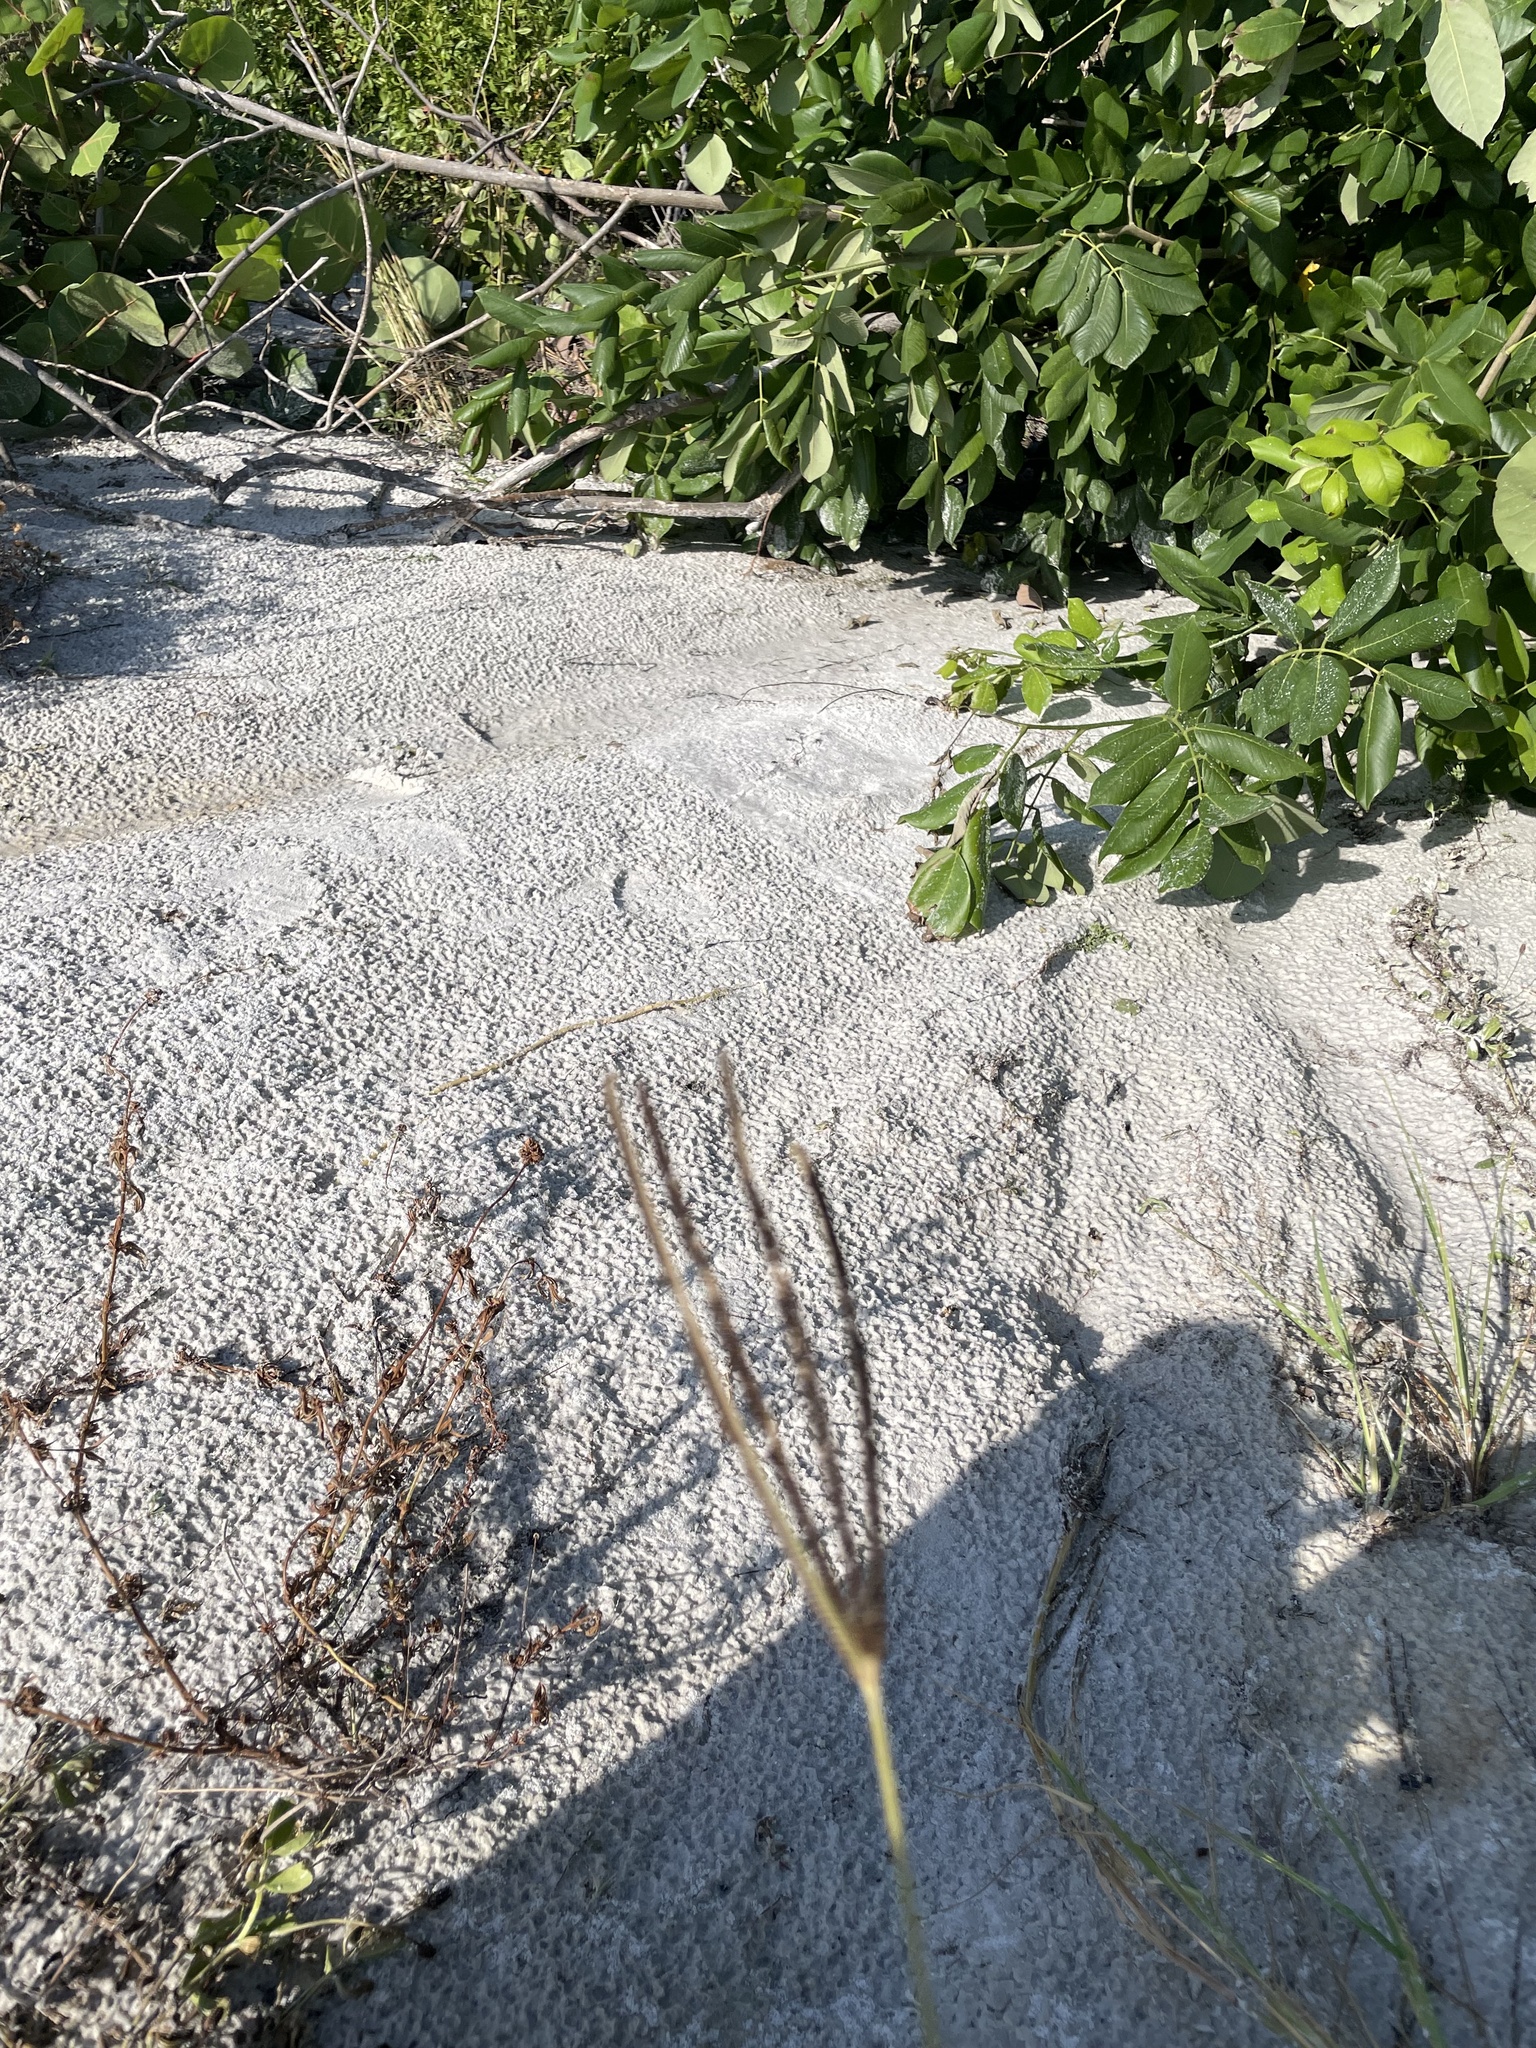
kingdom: Plantae
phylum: Tracheophyta
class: Liliopsida
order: Poales
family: Poaceae
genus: Eustachys
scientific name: Eustachys petraea
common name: Pinewoods fingergrass
